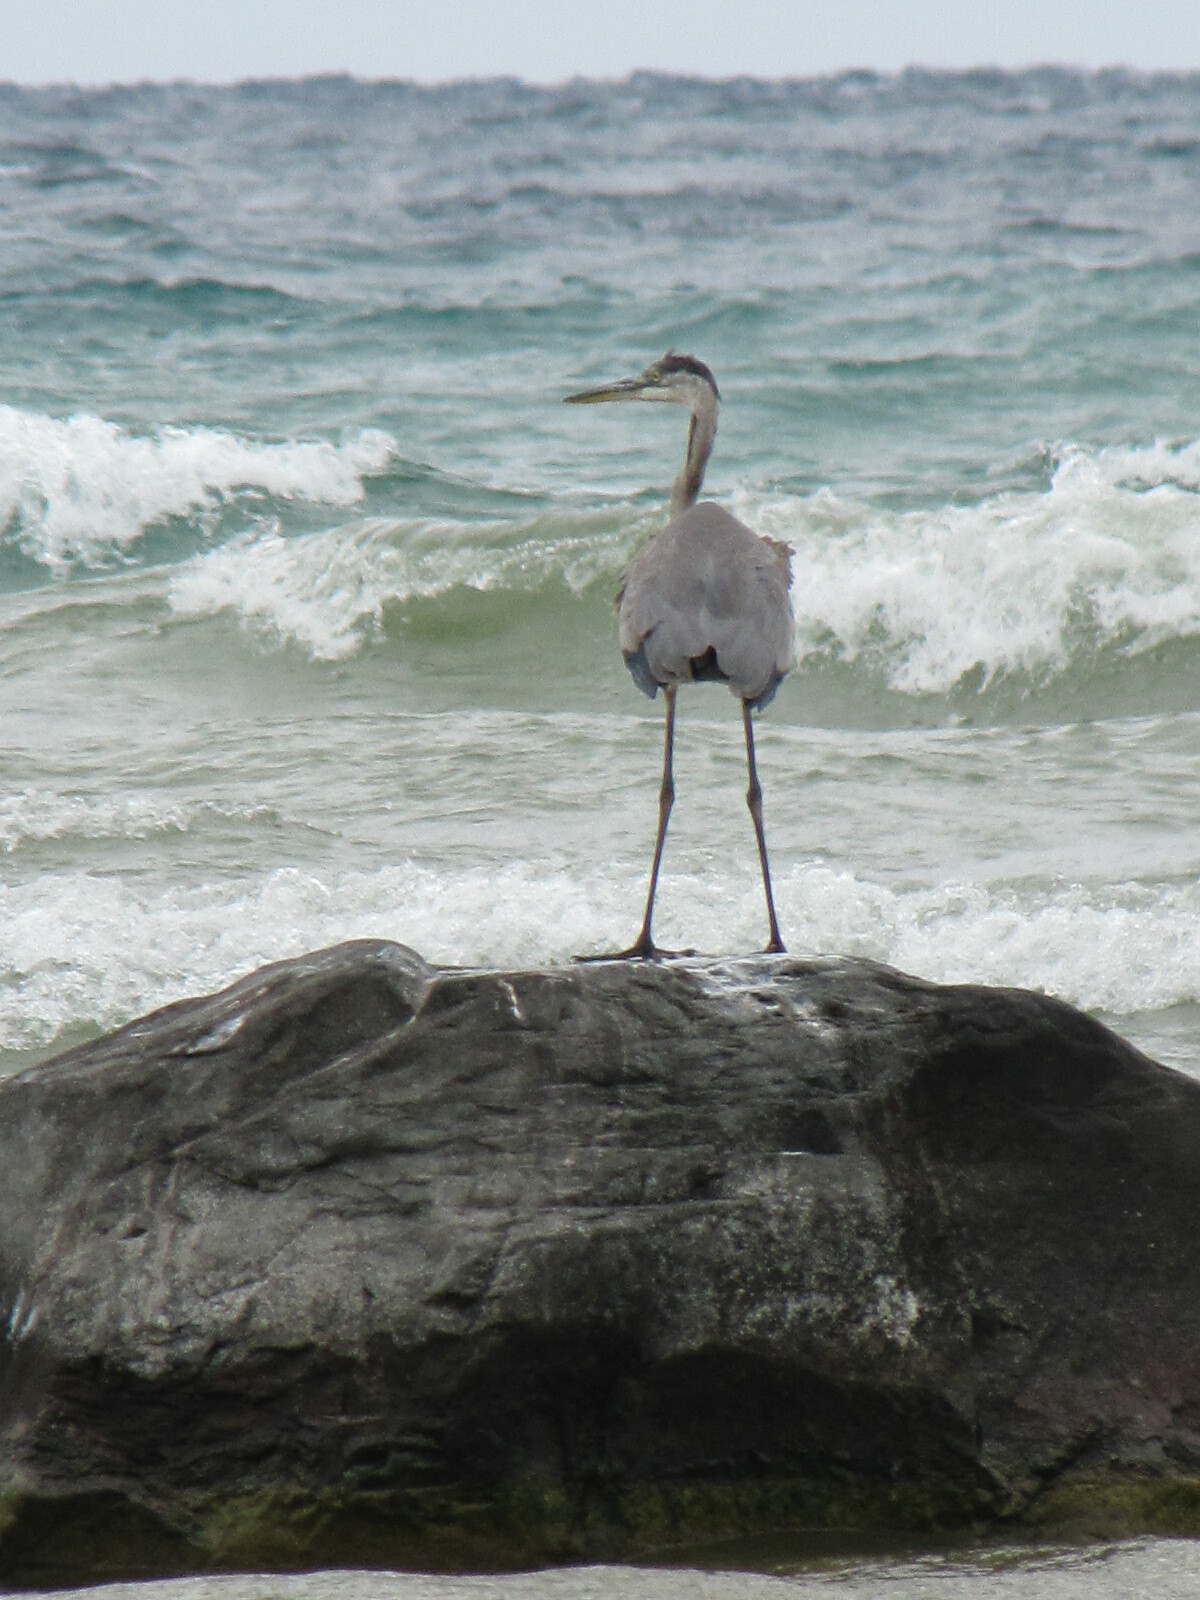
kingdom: Animalia
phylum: Chordata
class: Aves
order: Pelecaniformes
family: Ardeidae
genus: Ardea
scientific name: Ardea herodias
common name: Great blue heron
